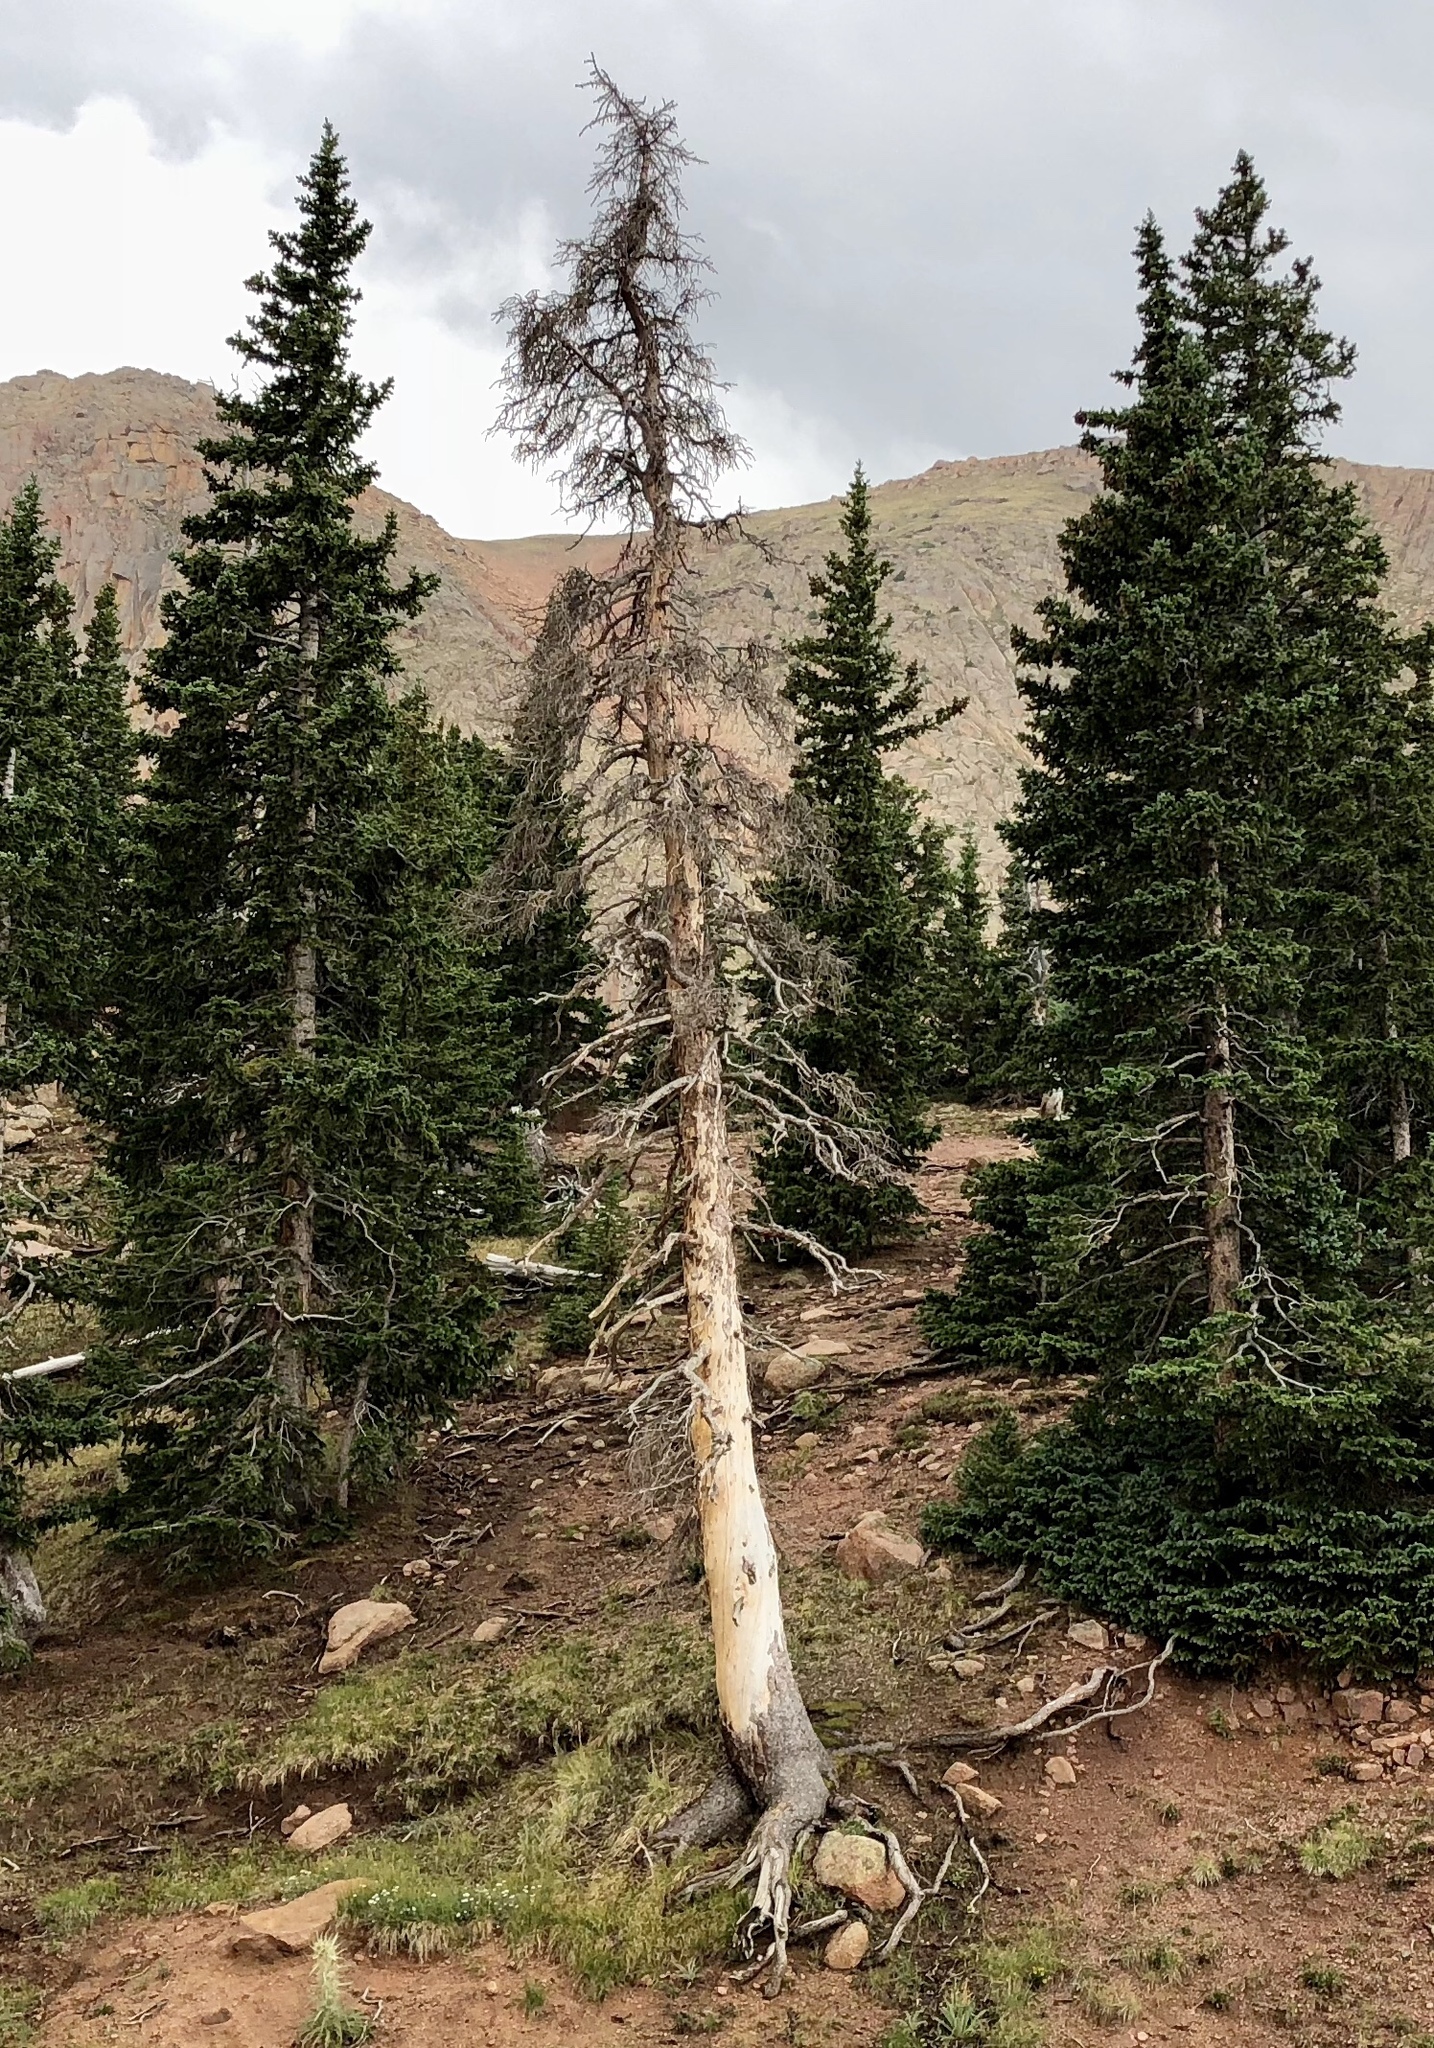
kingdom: Plantae
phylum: Tracheophyta
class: Pinopsida
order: Pinales
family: Pinaceae
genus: Picea
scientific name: Picea engelmannii
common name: Engelmann spruce
